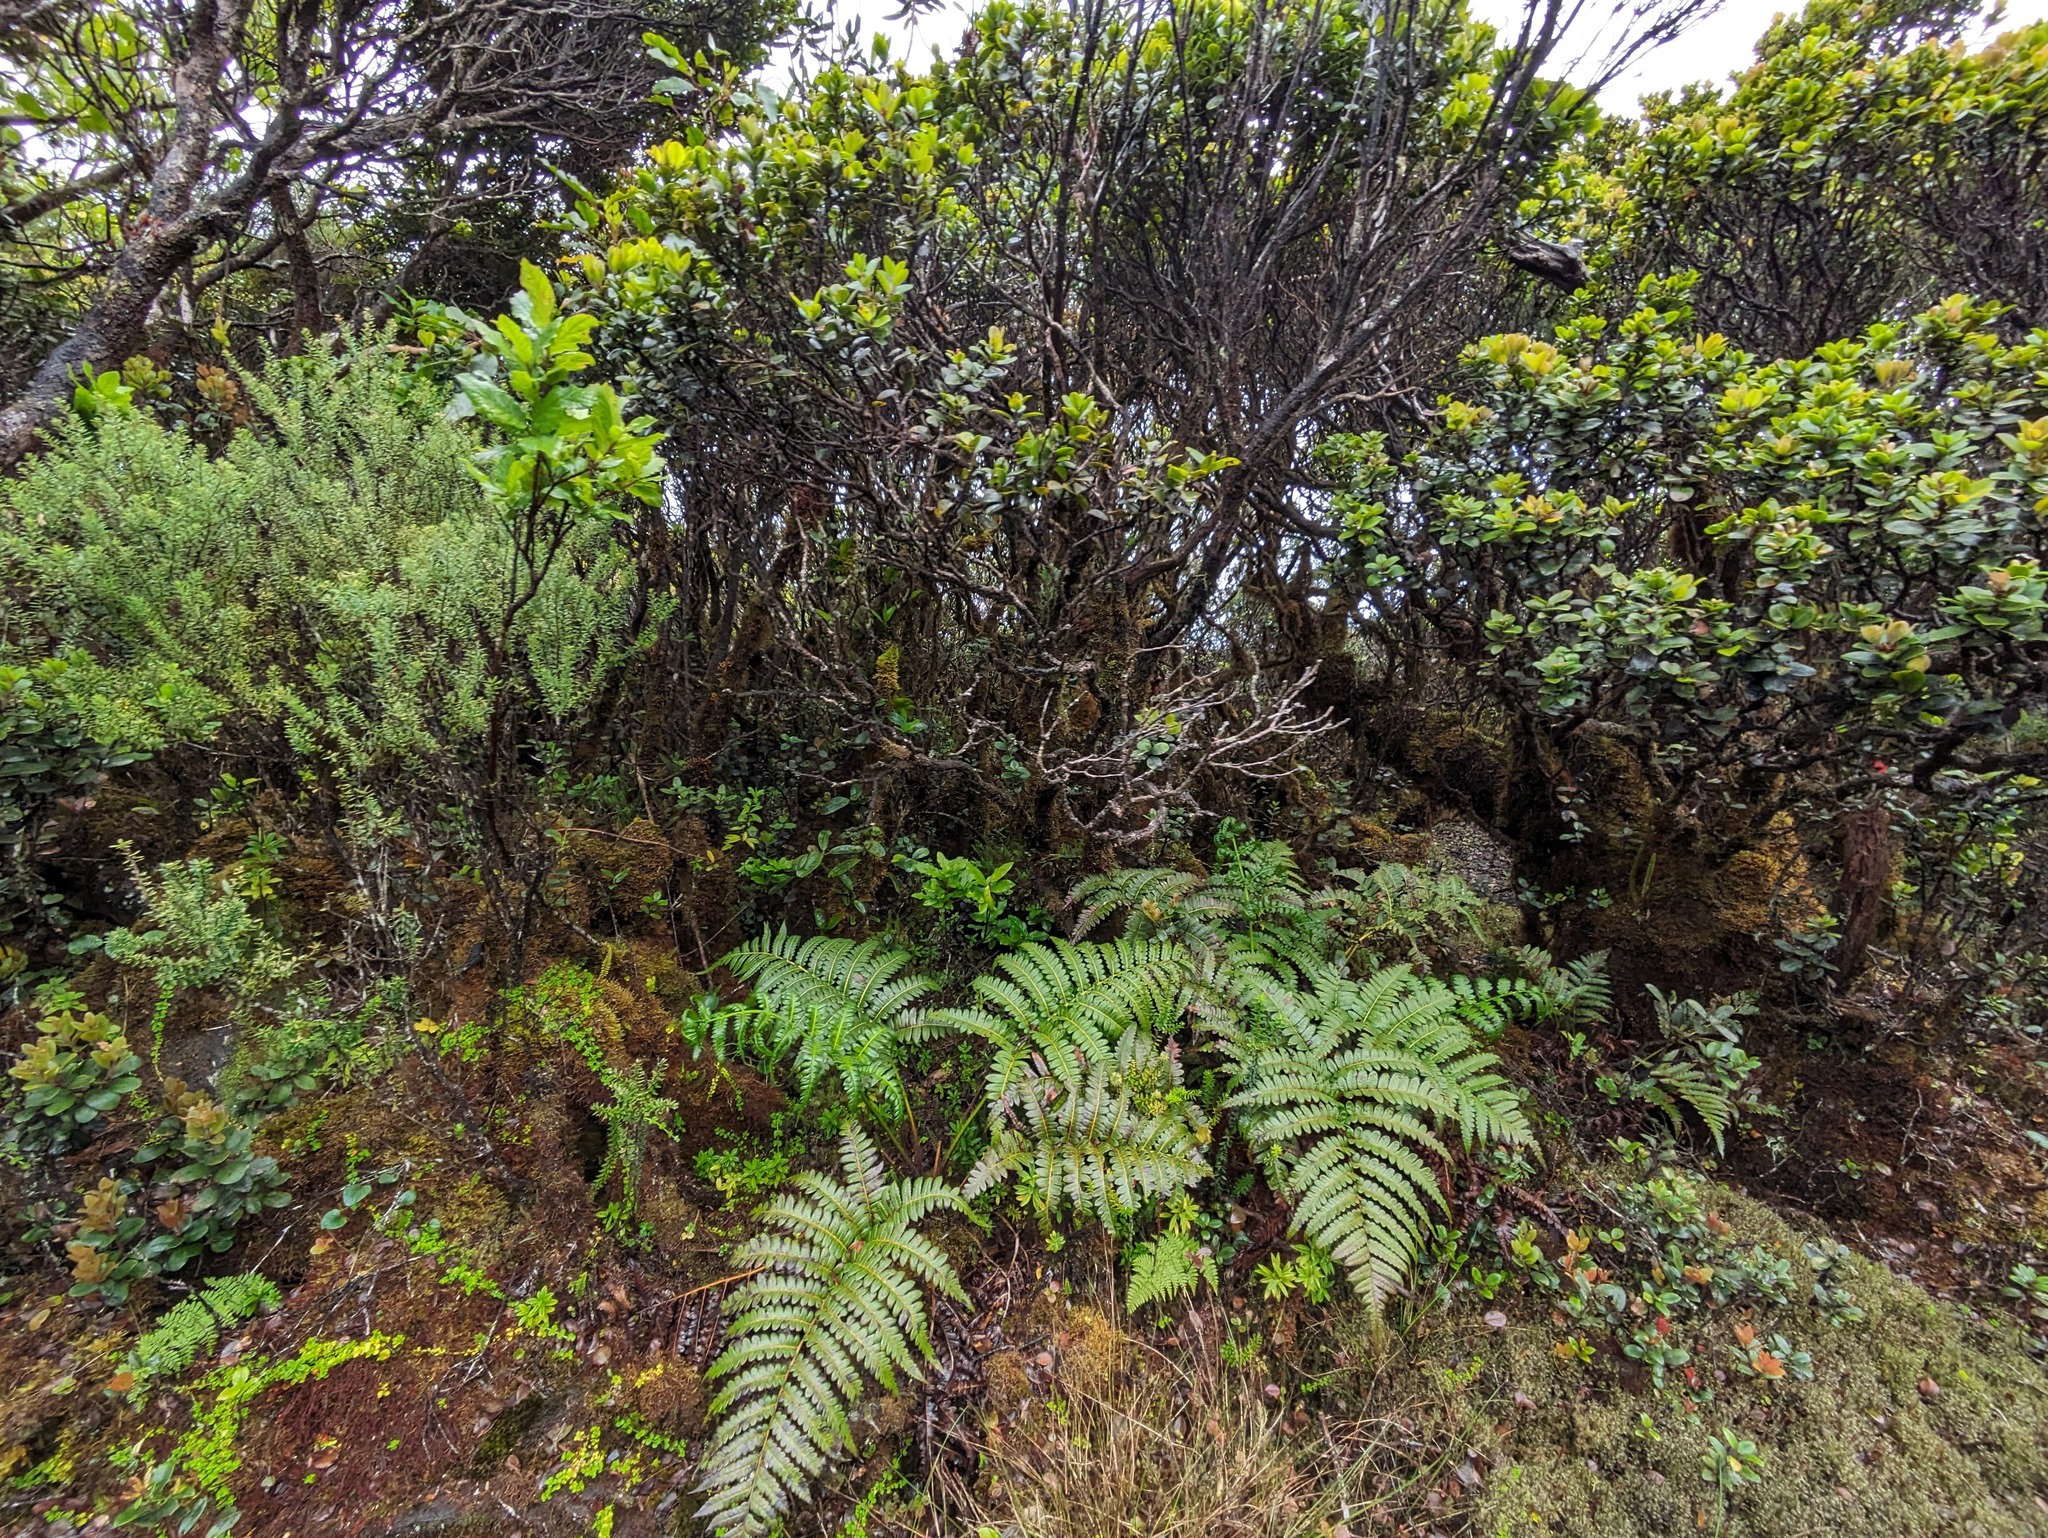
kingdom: Plantae
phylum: Tracheophyta
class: Polypodiopsida
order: Cyatheales
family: Cibotiaceae
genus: Cibotium
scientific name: Cibotium glaucum
